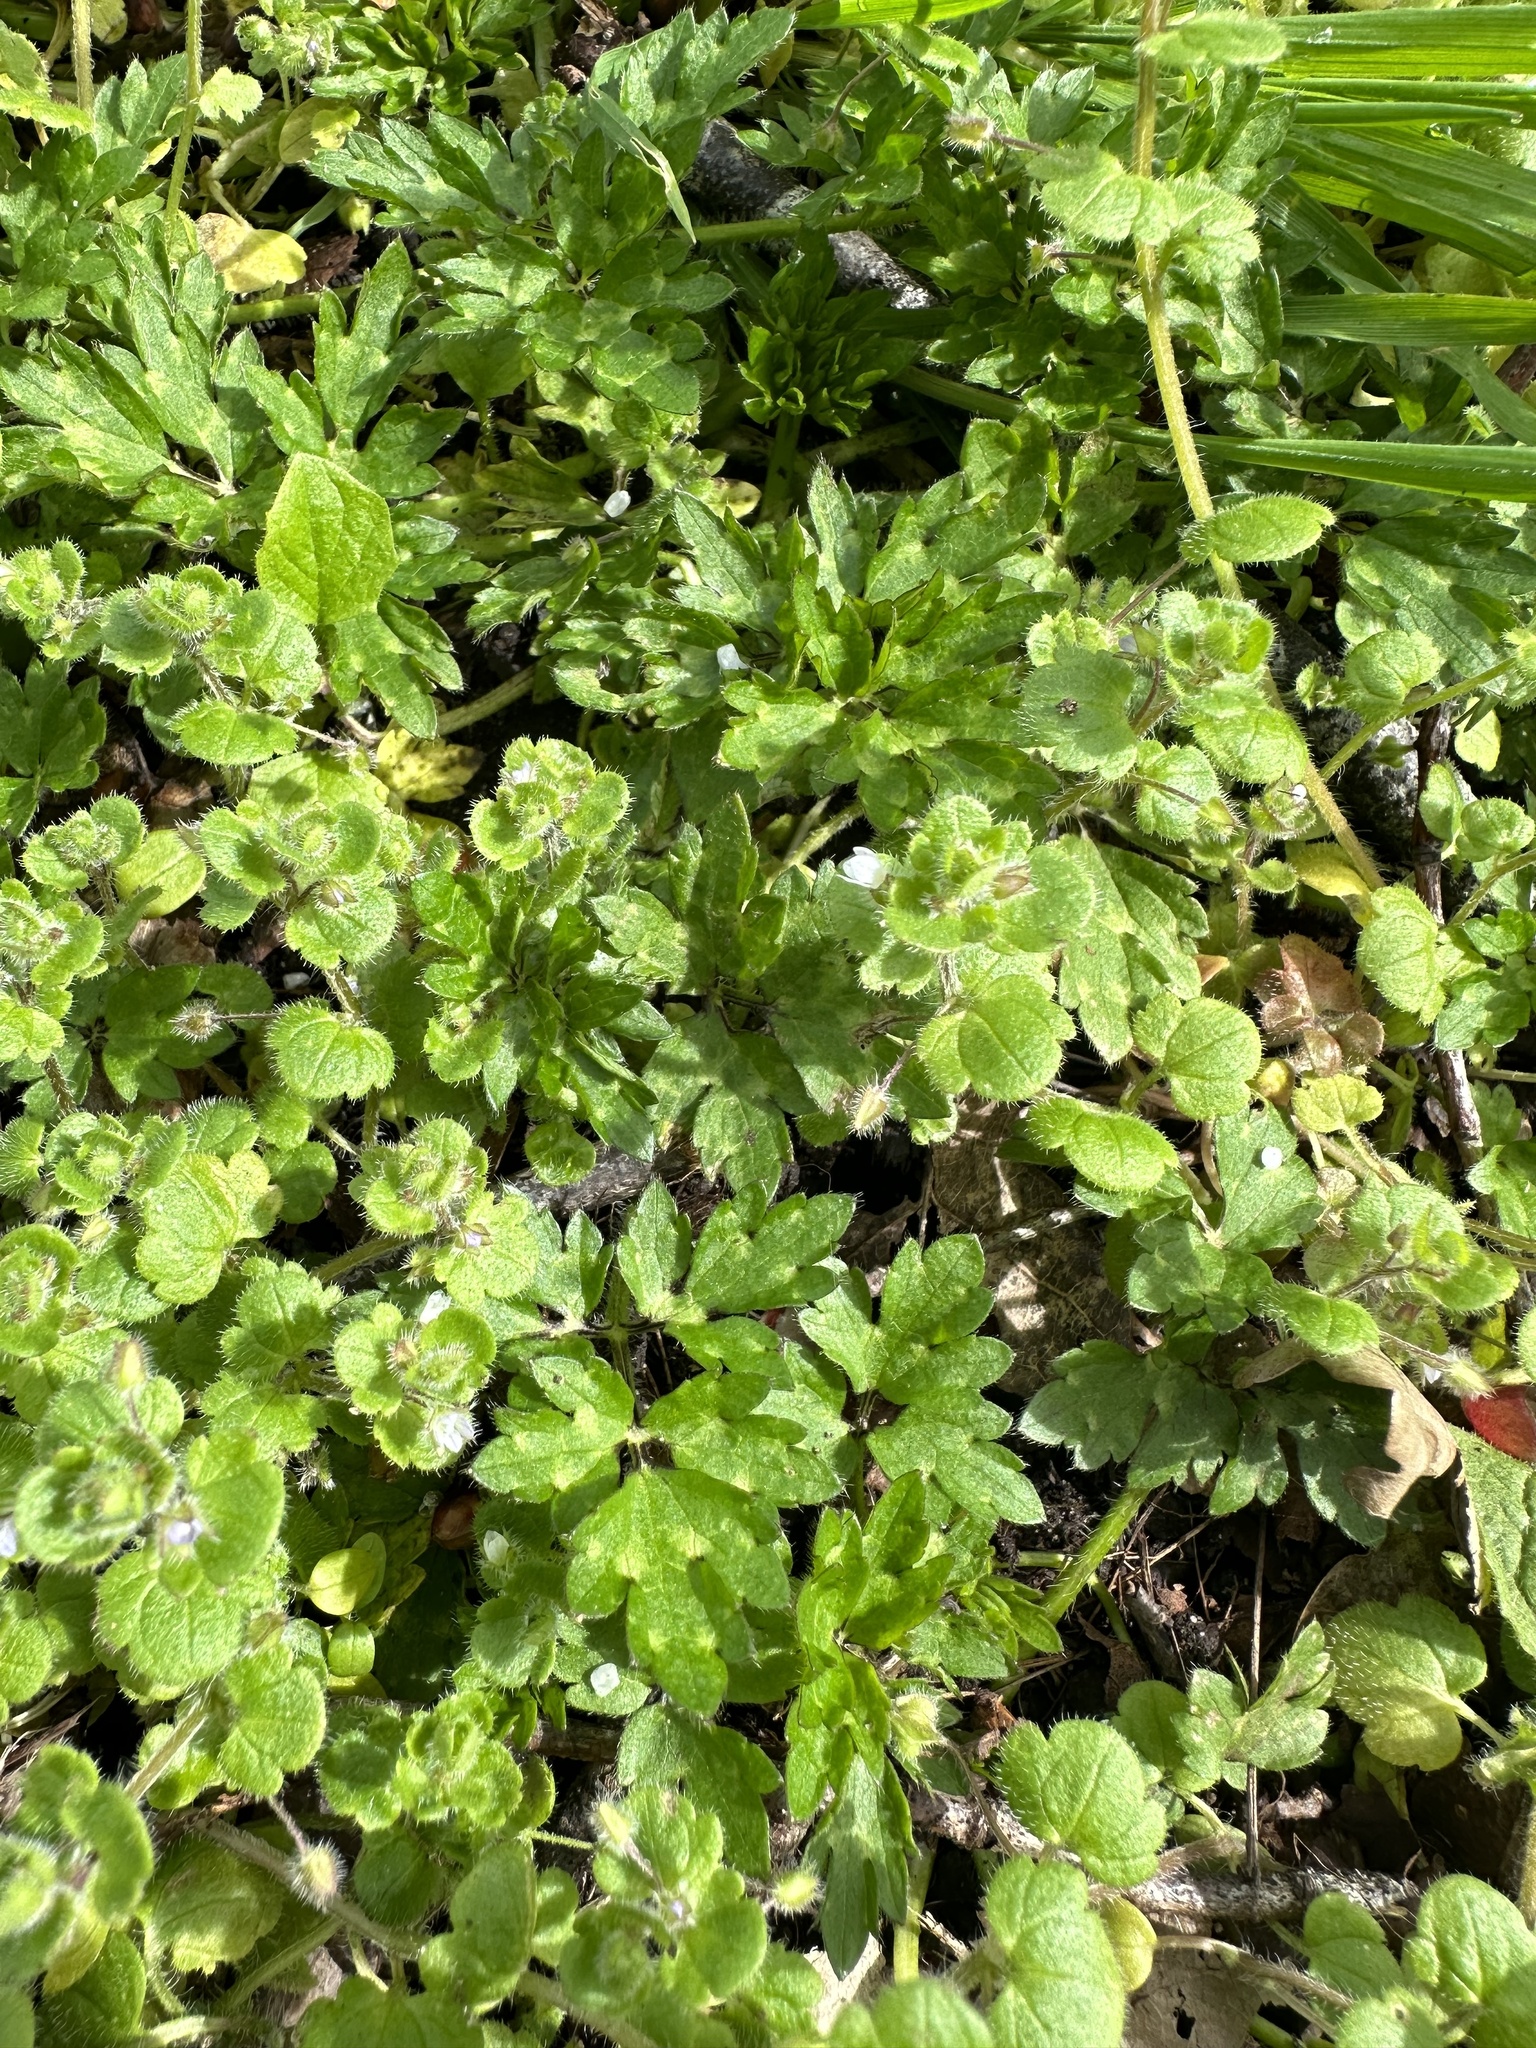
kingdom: Plantae
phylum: Tracheophyta
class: Magnoliopsida
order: Lamiales
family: Plantaginaceae
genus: Veronica
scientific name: Veronica hederifolia
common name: Ivy-leaved speedwell
